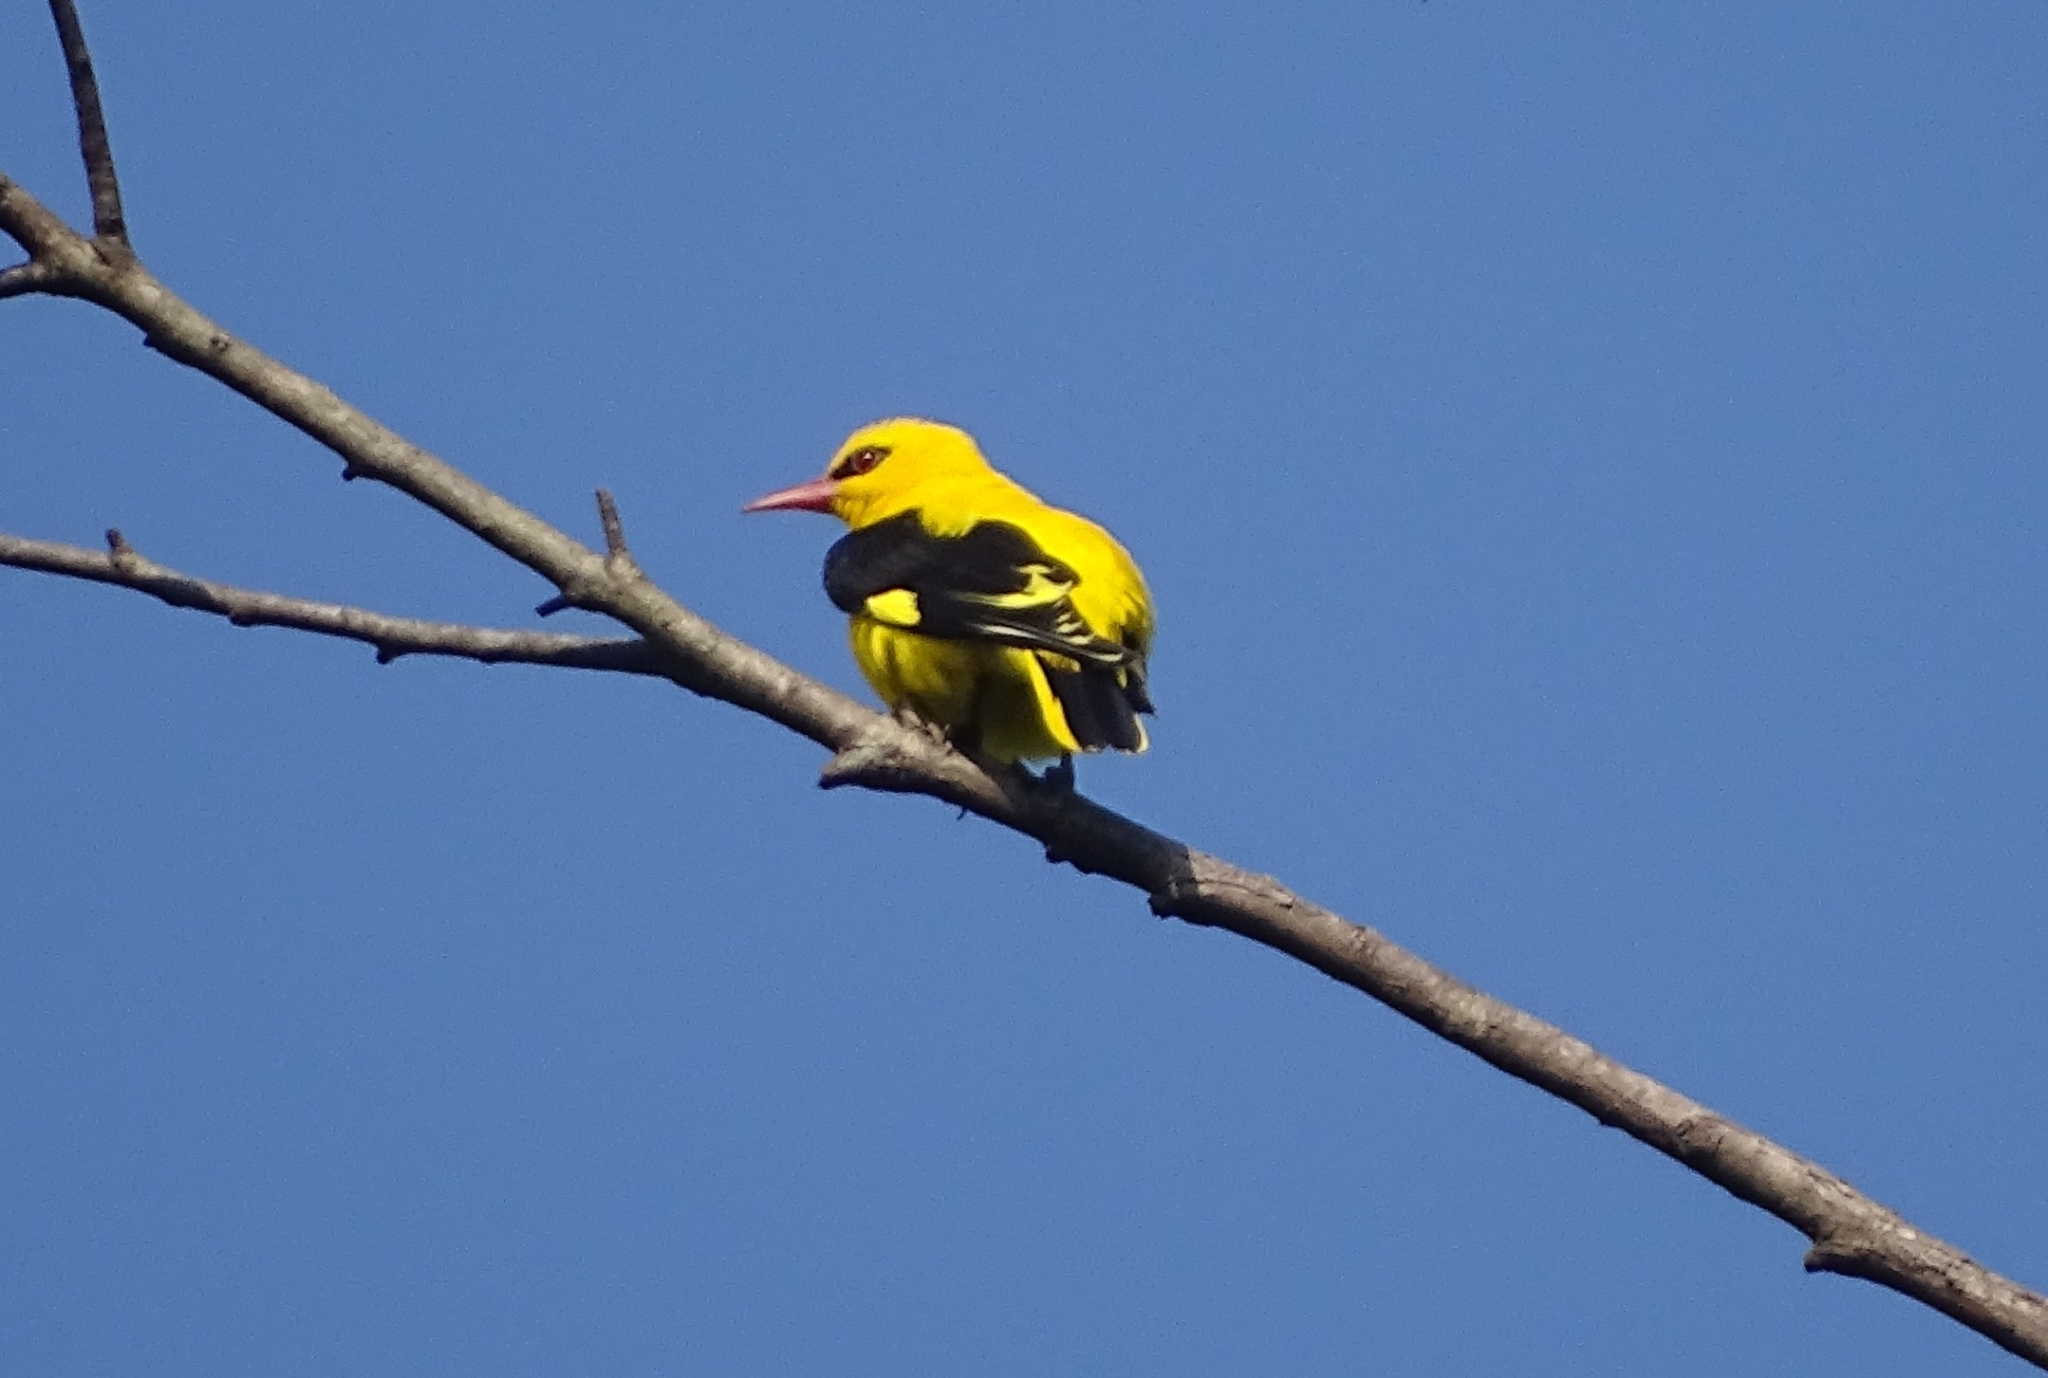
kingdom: Animalia
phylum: Chordata
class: Aves
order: Passeriformes
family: Oriolidae
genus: Oriolus
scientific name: Oriolus kundoo
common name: Indian golden oriole
